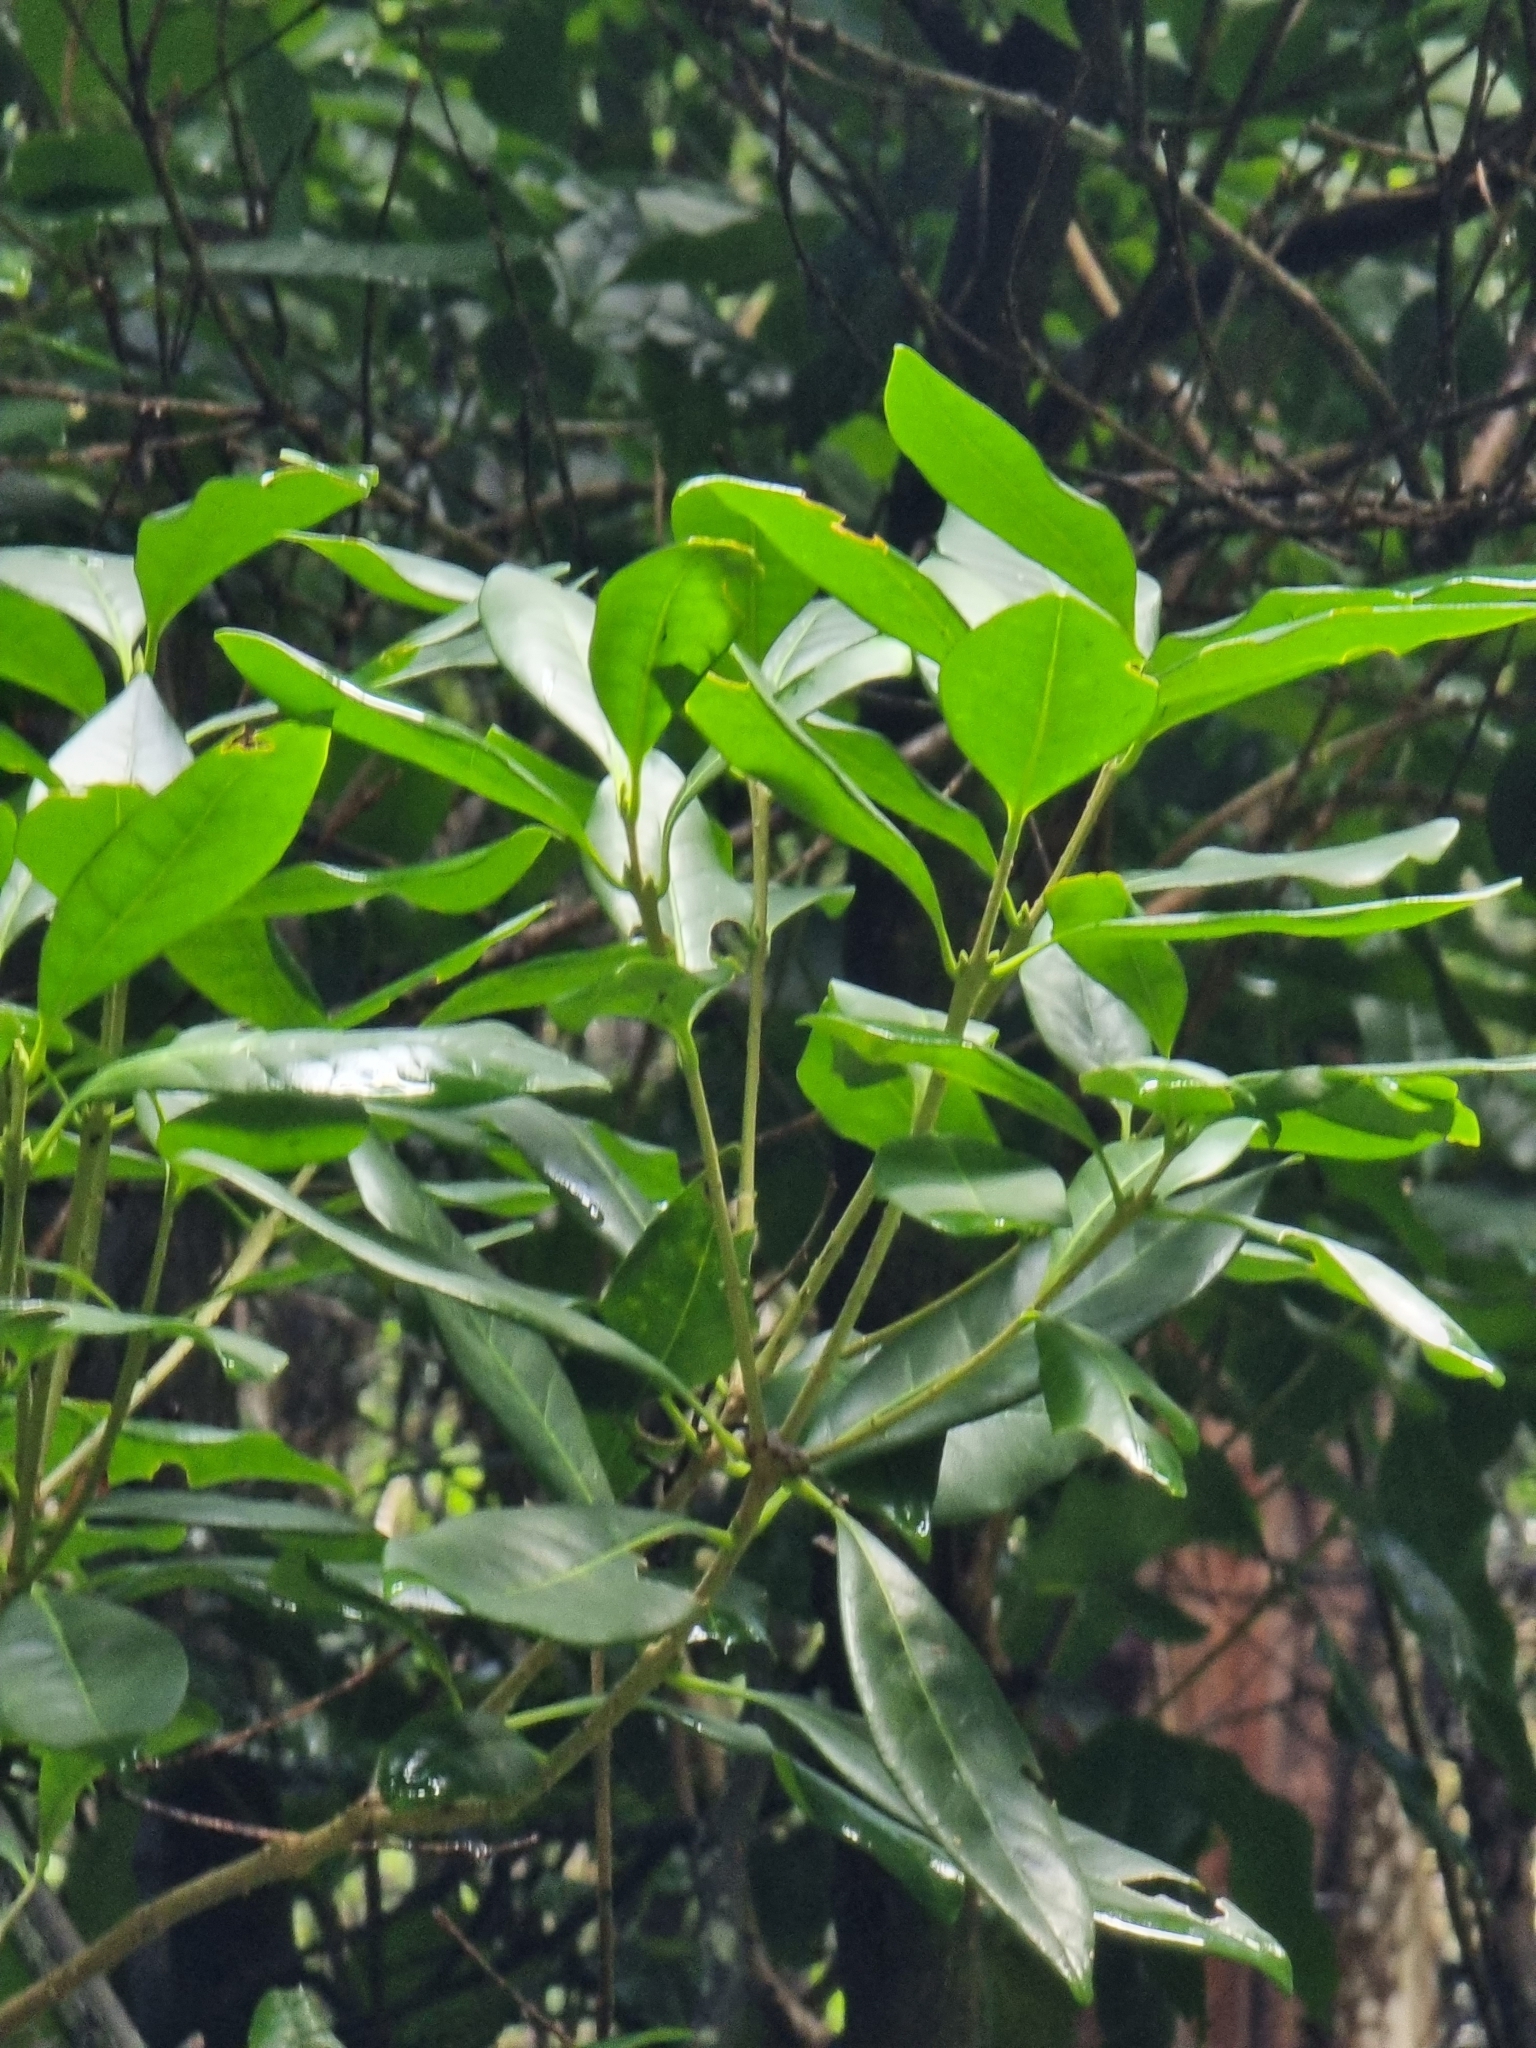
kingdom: Plantae
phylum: Tracheophyta
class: Magnoliopsida
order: Lamiales
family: Oleaceae
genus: Picconia
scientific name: Picconia excelsa
